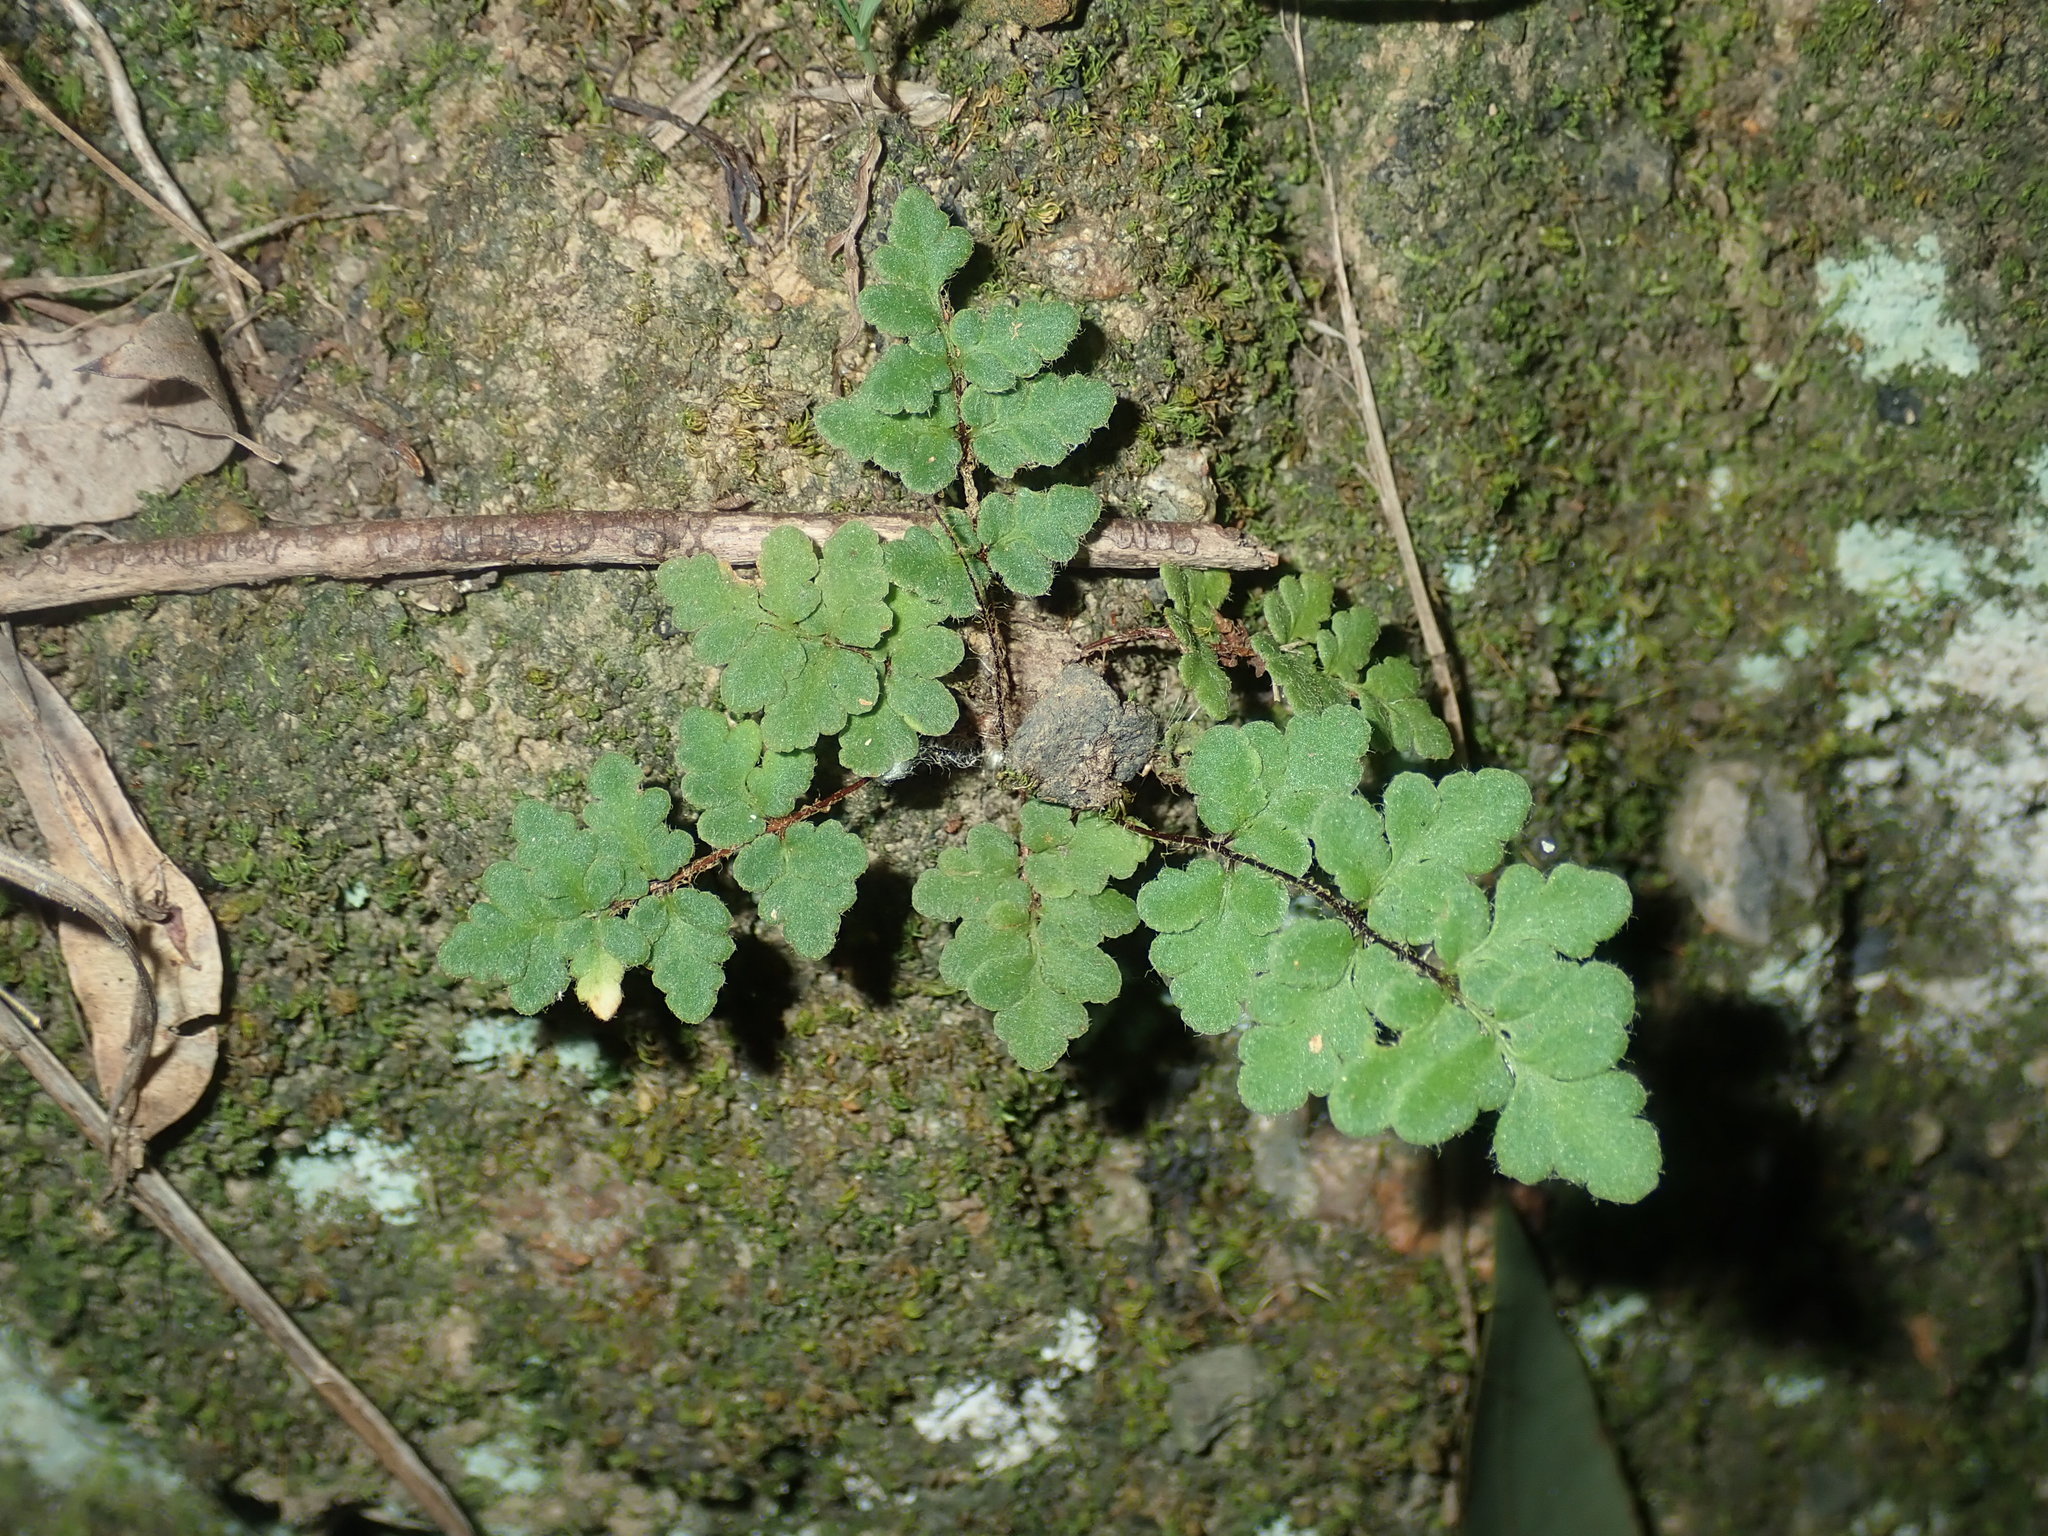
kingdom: Plantae
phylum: Tracheophyta
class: Polypodiopsida
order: Polypodiales
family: Pteridaceae
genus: Cheilanthes
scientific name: Cheilanthes distans
